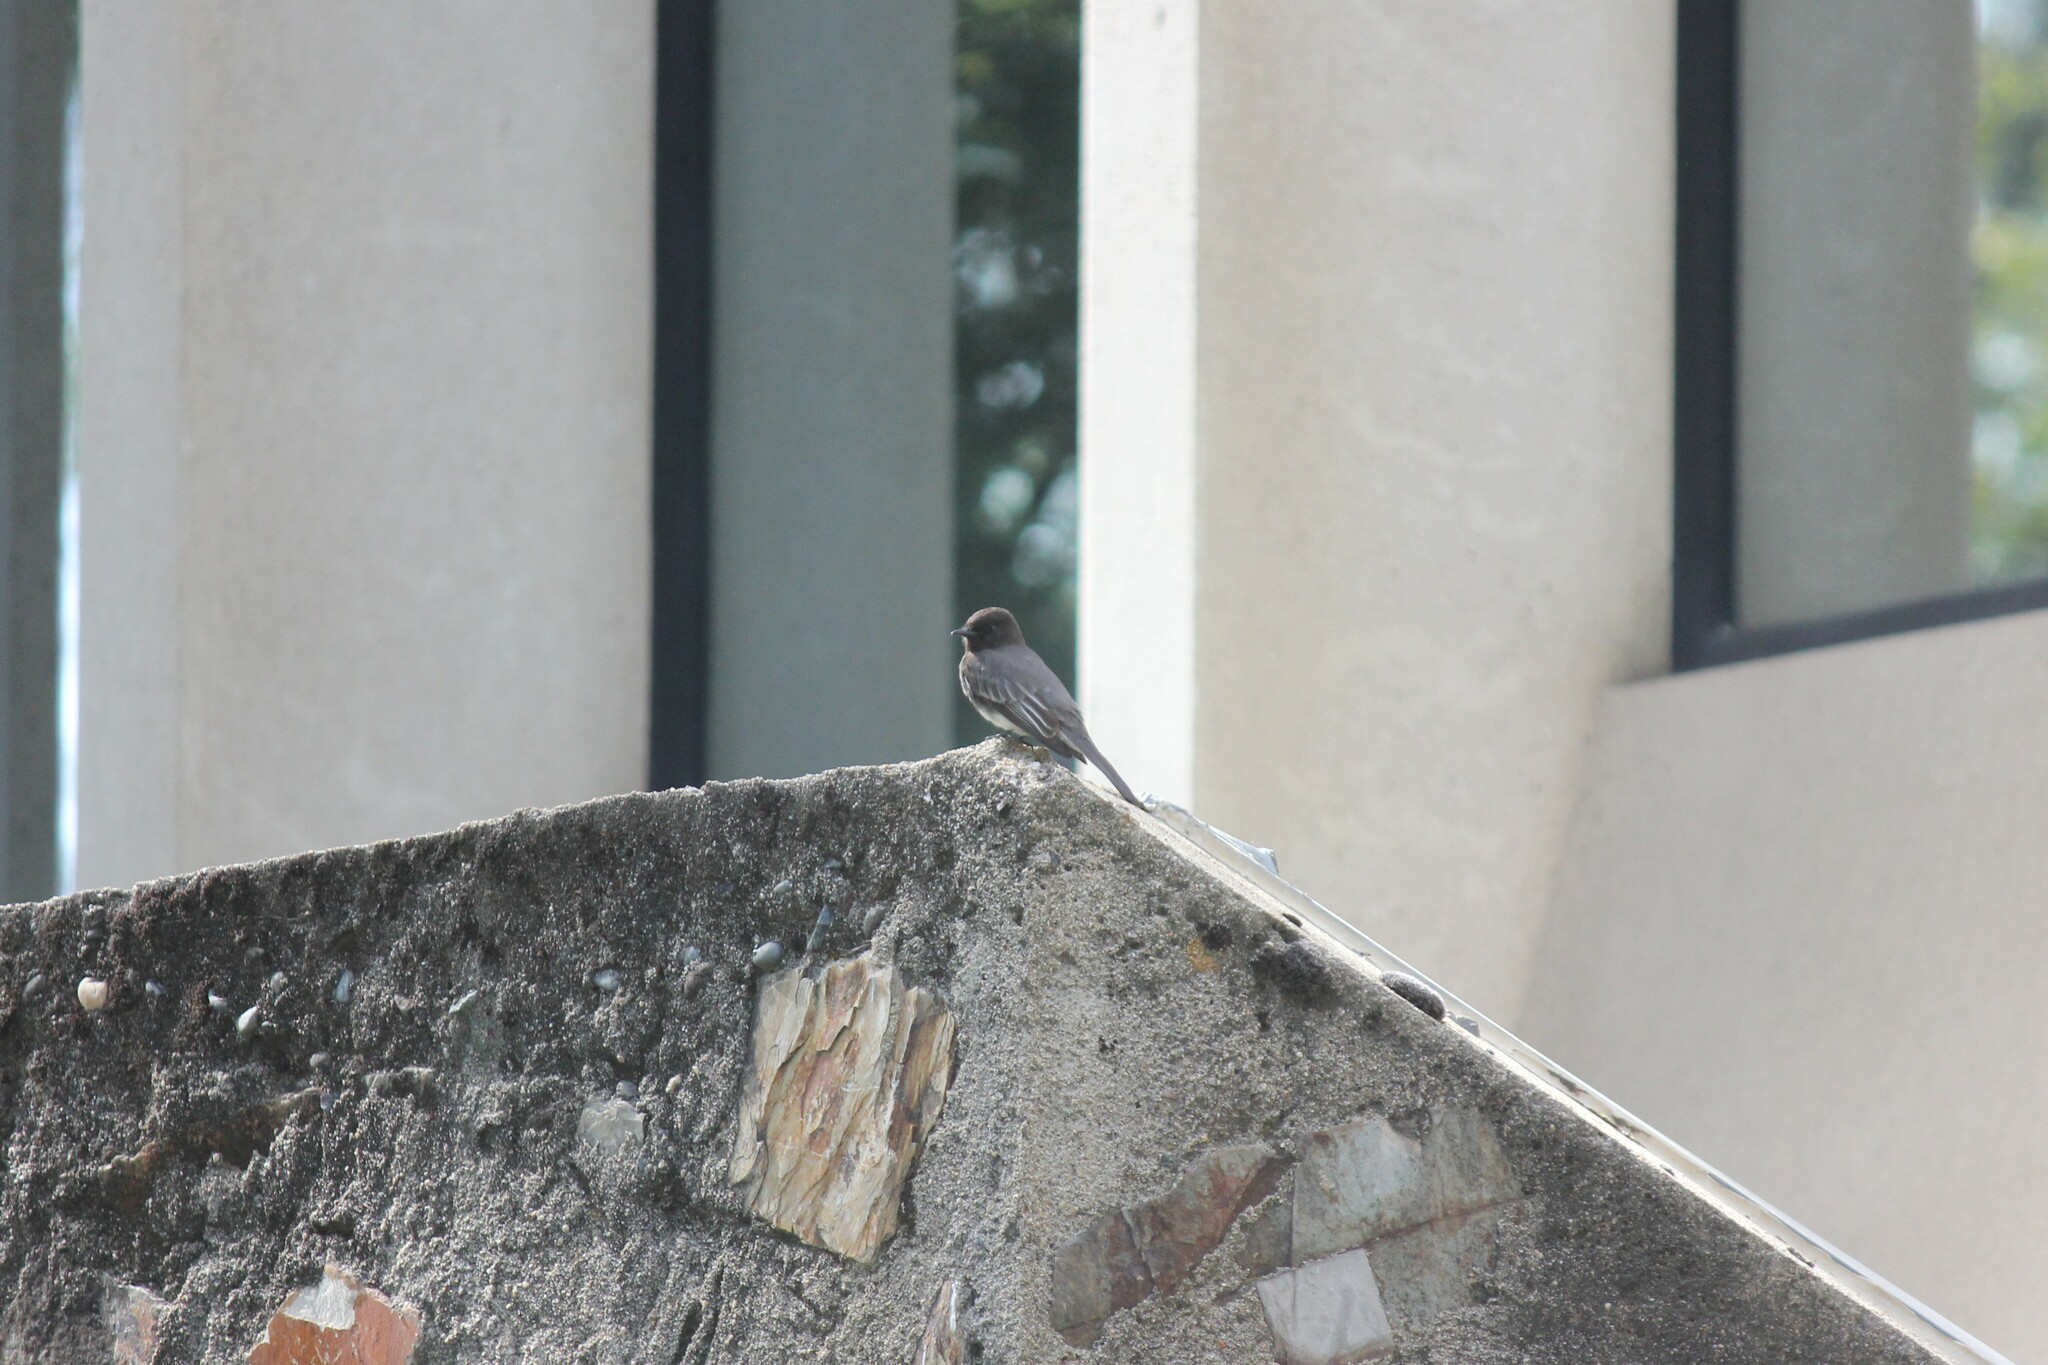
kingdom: Animalia
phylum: Chordata
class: Aves
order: Passeriformes
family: Tyrannidae
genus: Sayornis
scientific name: Sayornis nigricans
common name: Black phoebe
